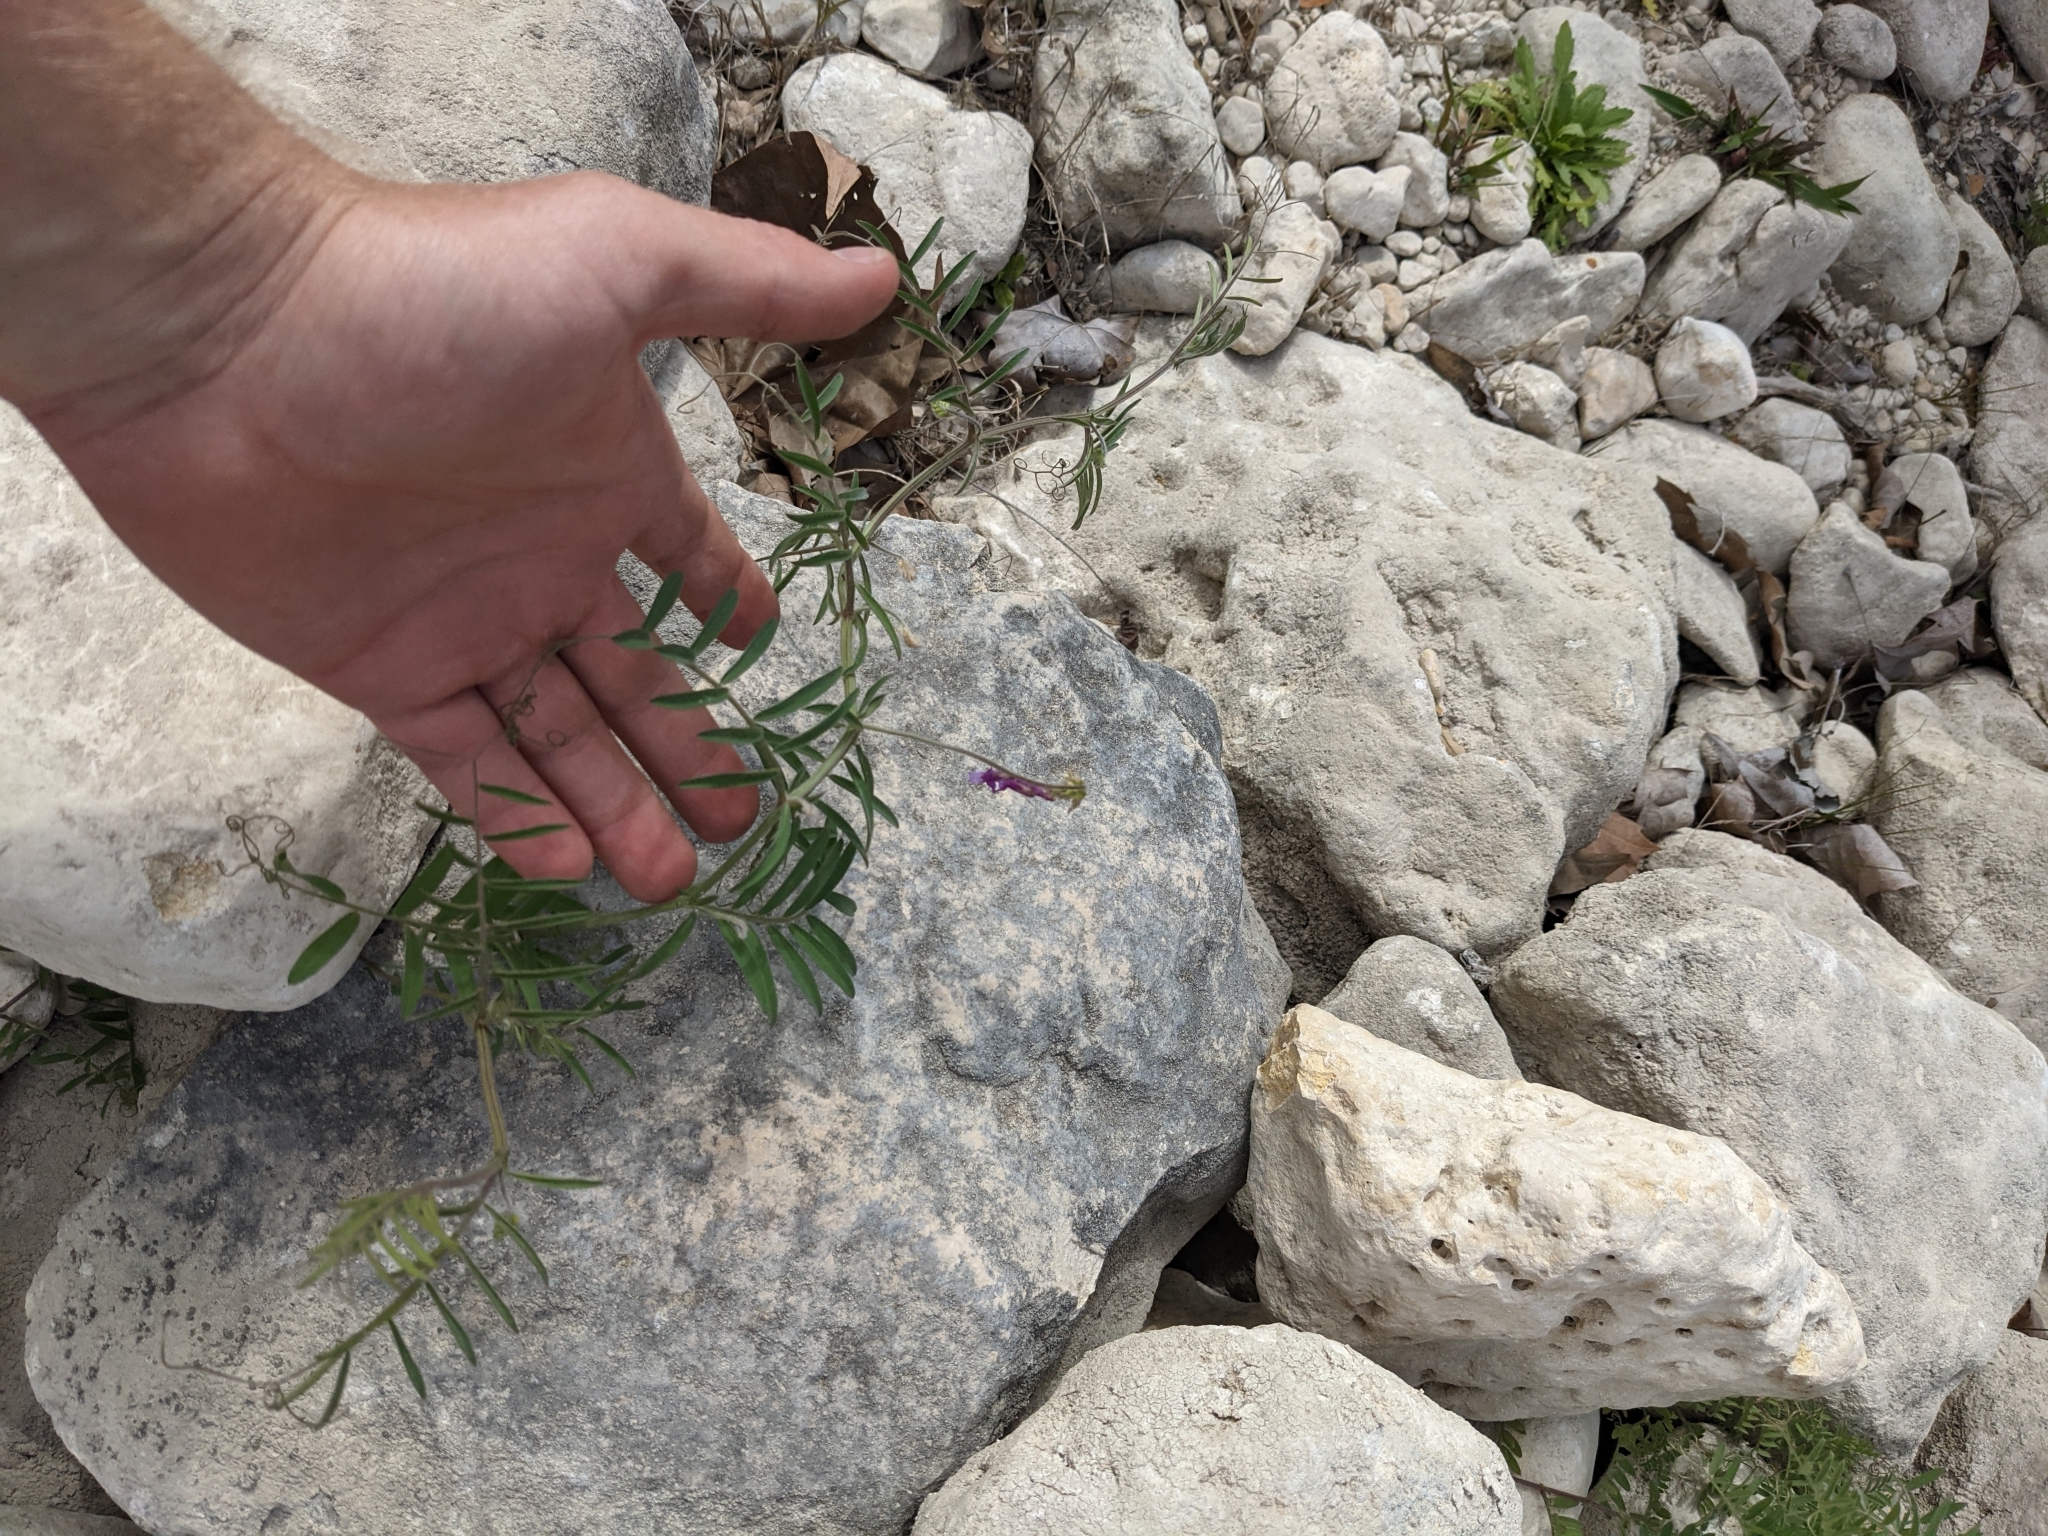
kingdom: Plantae
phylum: Tracheophyta
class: Magnoliopsida
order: Fabales
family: Fabaceae
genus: Vicia
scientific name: Vicia villosa
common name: Fodder vetch
